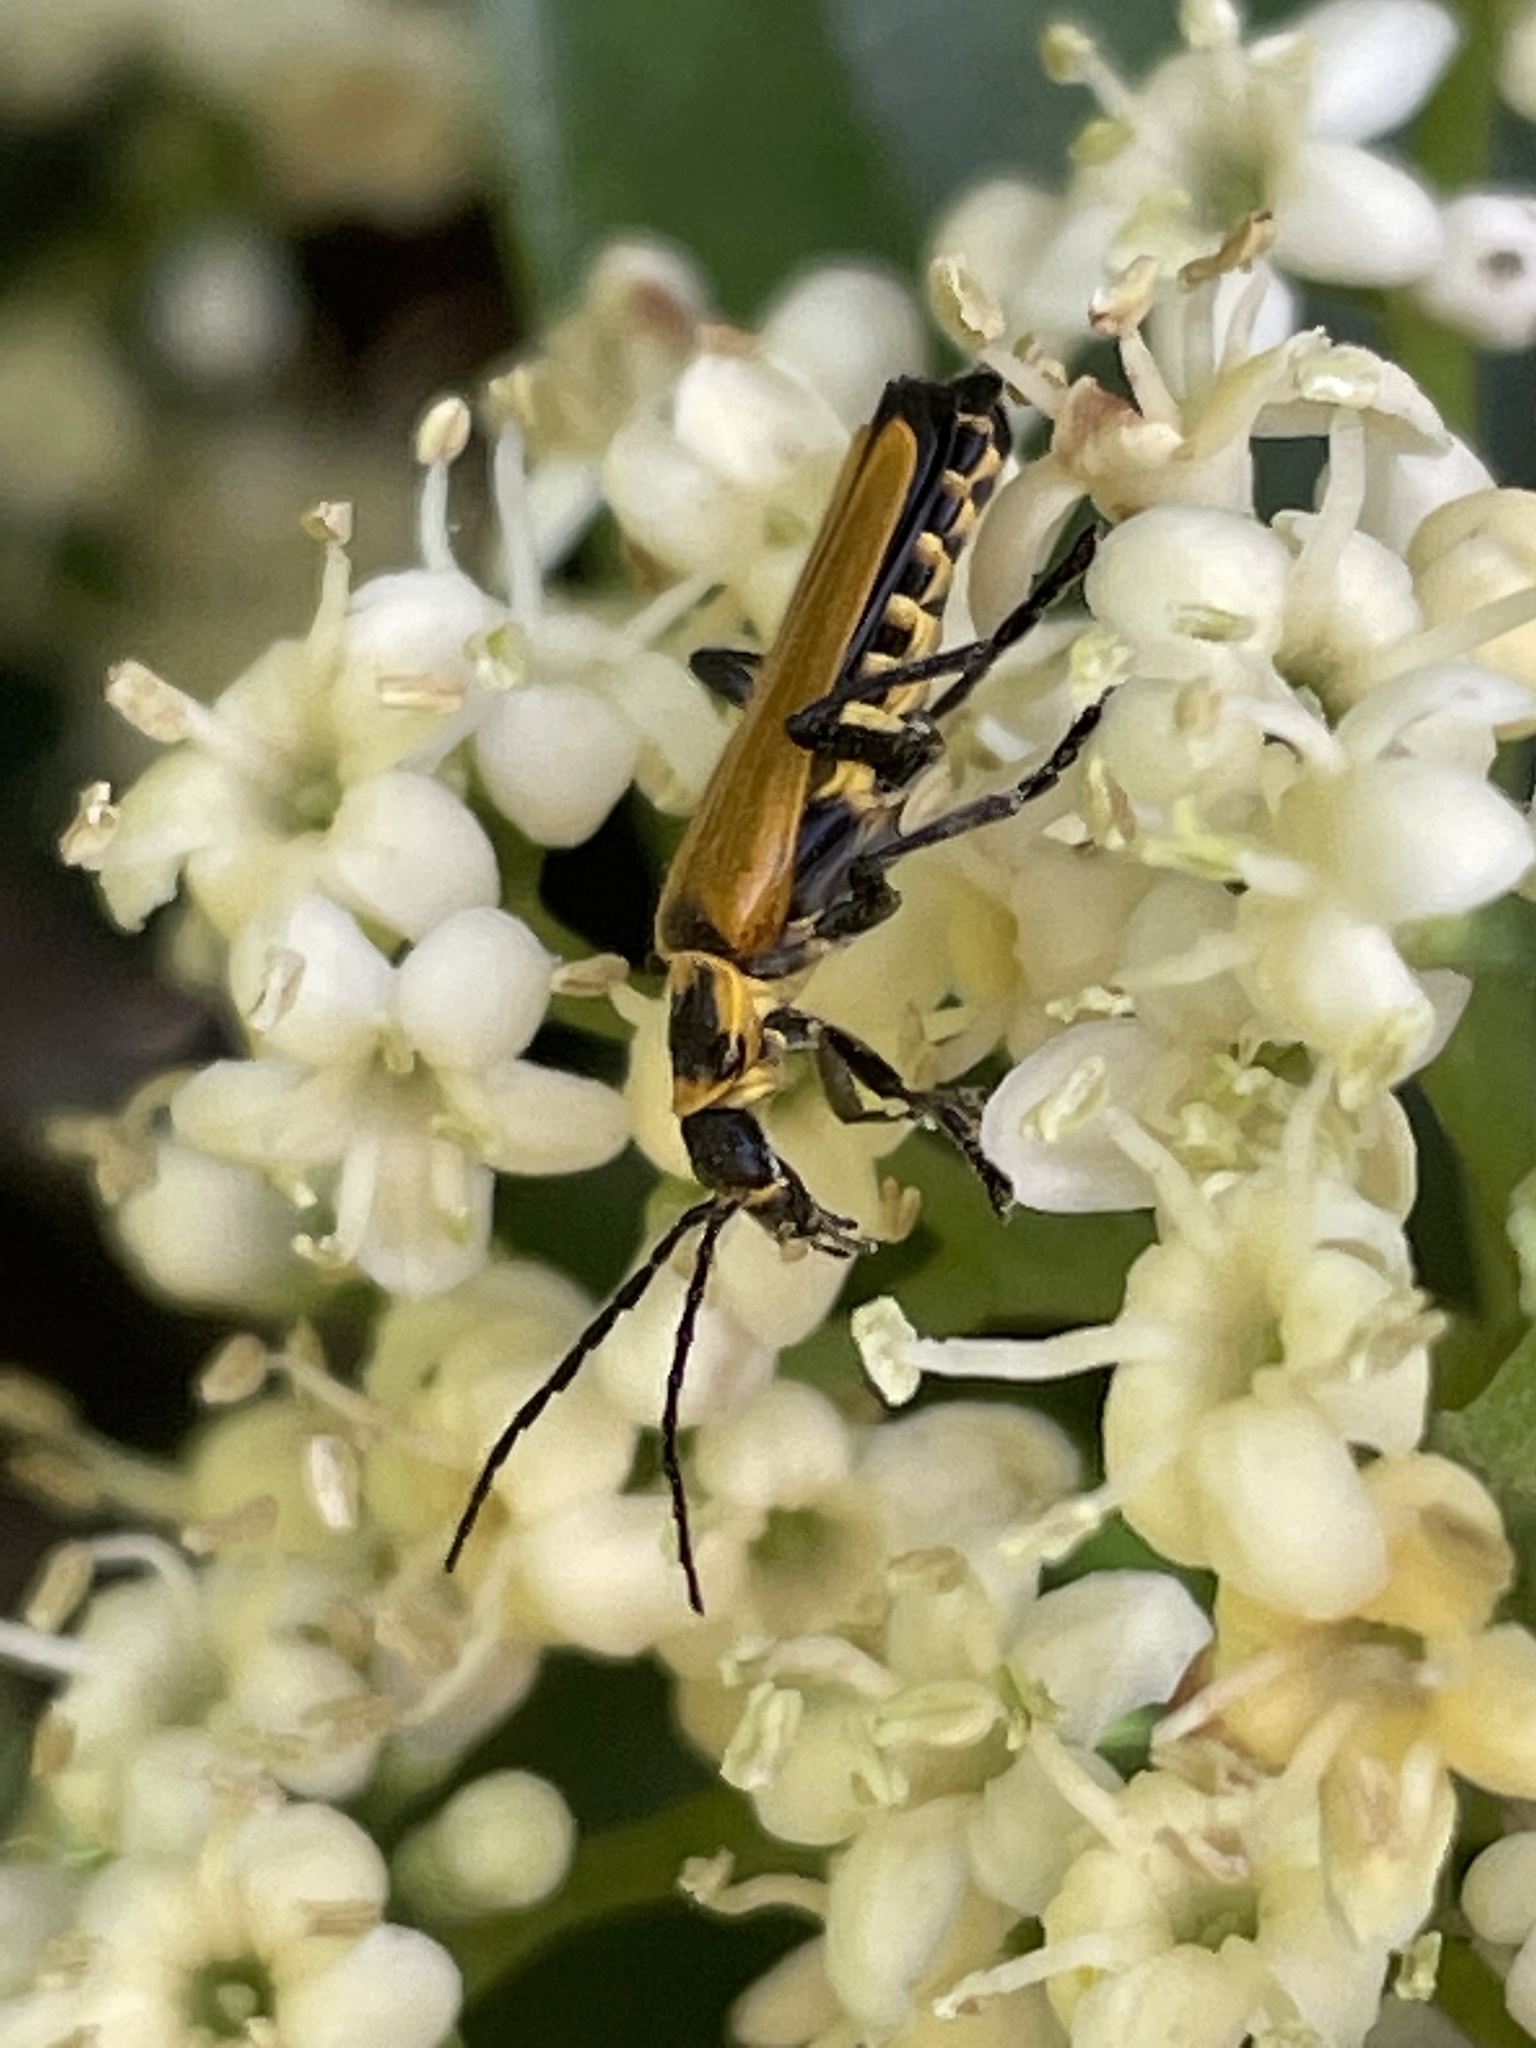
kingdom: Animalia
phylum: Arthropoda
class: Insecta
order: Coleoptera
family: Cantharidae
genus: Chauliognathus
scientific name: Chauliognathus
